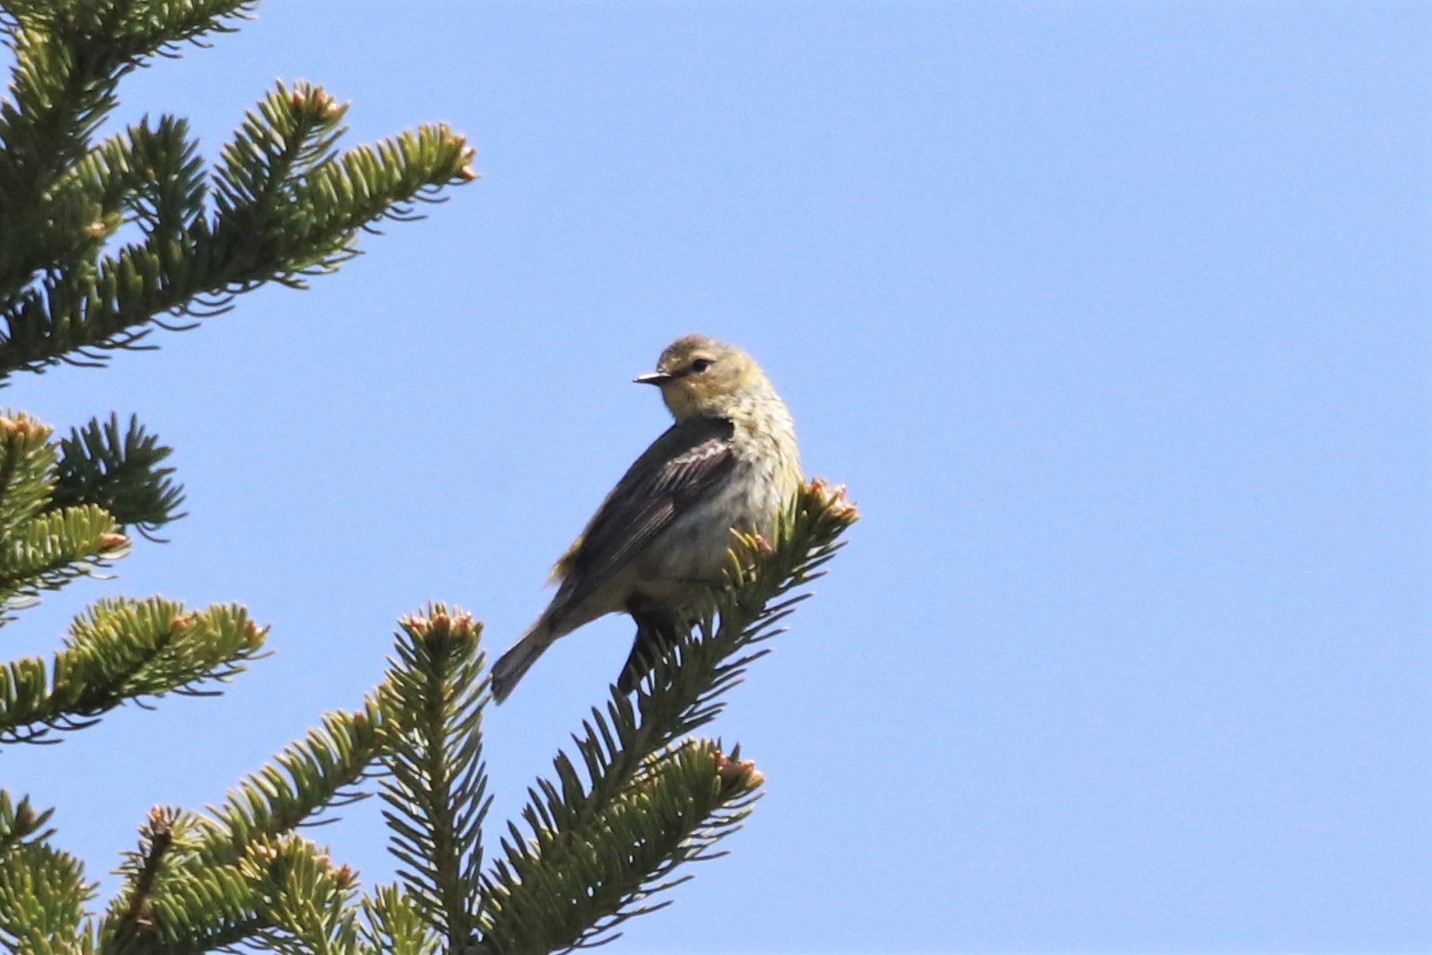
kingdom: Animalia
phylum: Chordata
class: Aves
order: Passeriformes
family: Parulidae
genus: Setophaga
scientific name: Setophaga tigrina
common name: Cape may warbler
